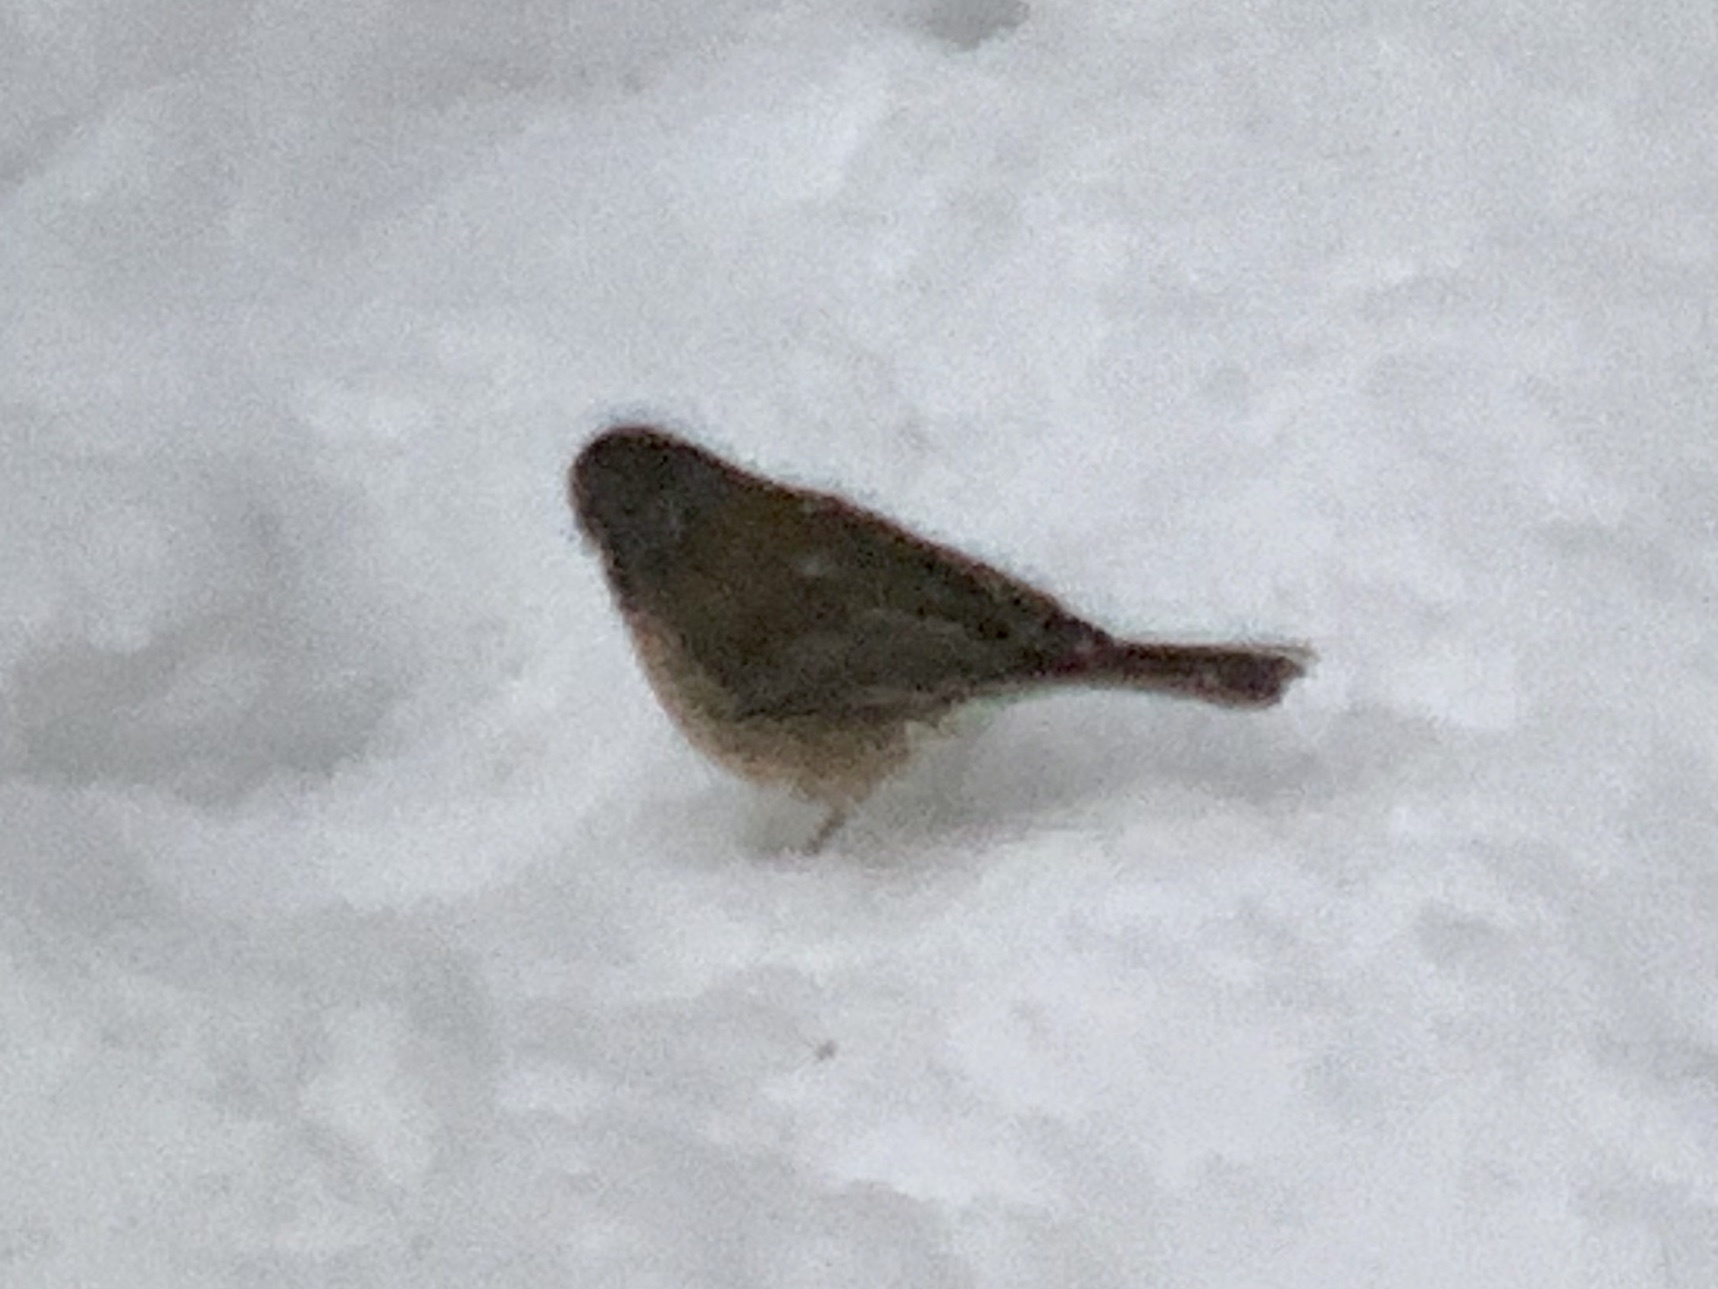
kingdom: Animalia
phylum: Chordata
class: Aves
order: Passeriformes
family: Passerellidae
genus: Junco
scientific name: Junco hyemalis
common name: Dark-eyed junco
